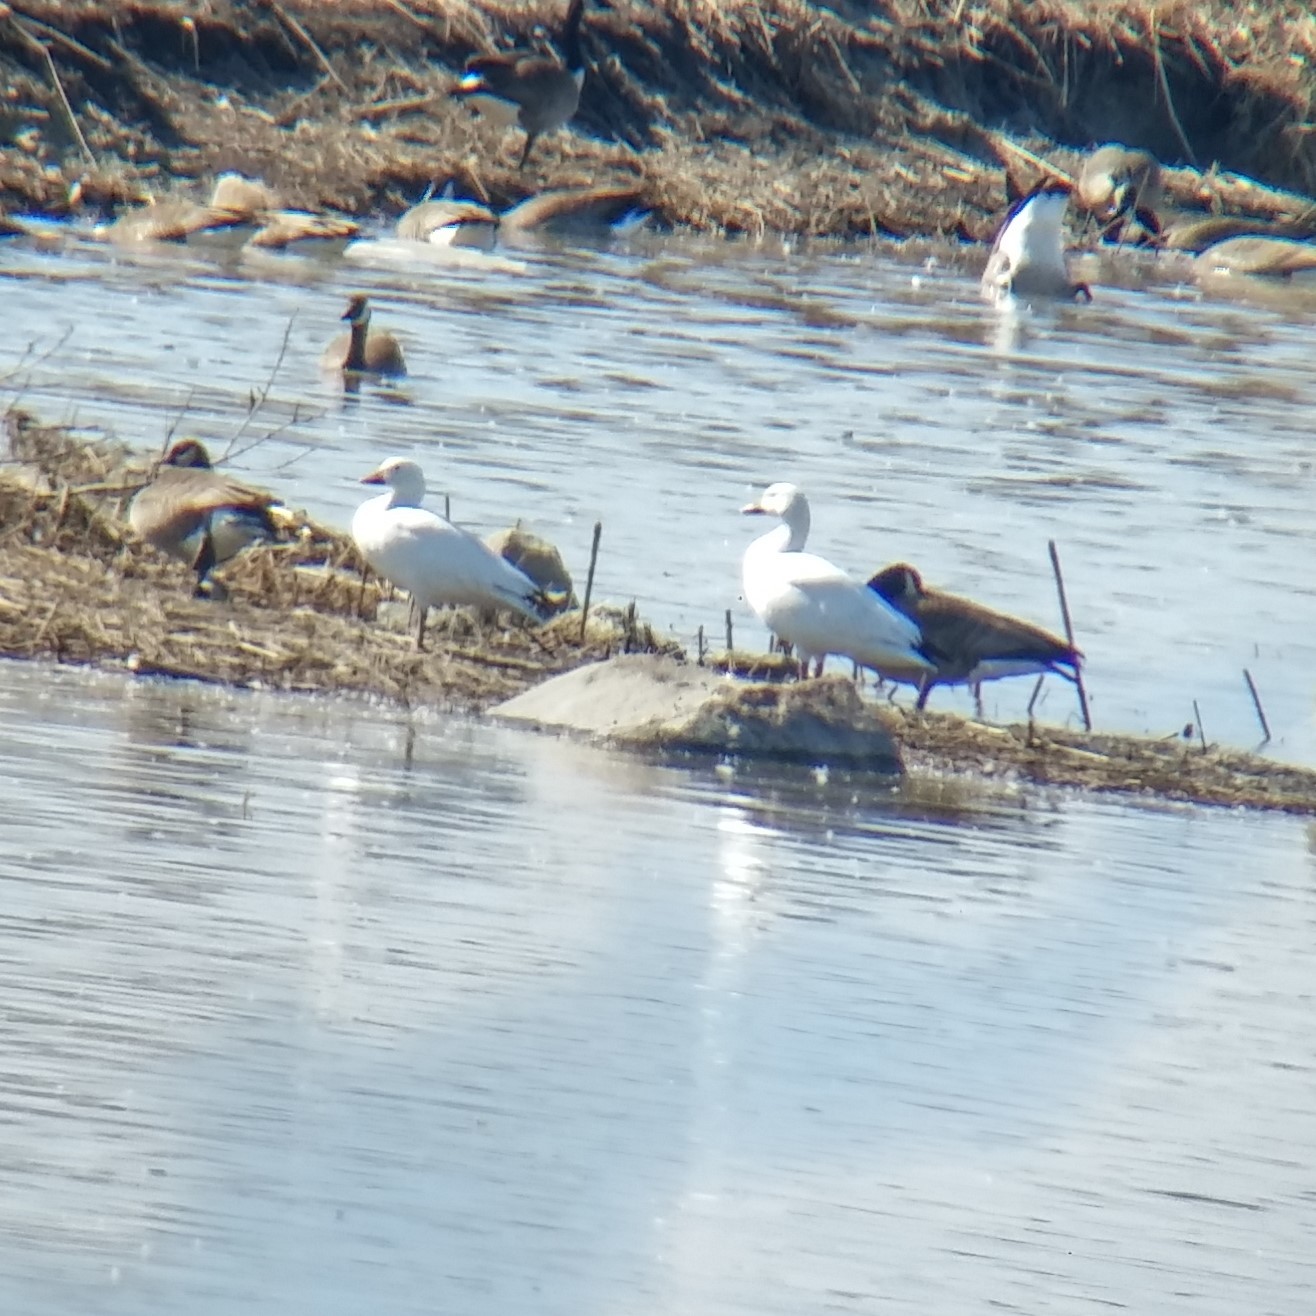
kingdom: Animalia
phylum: Chordata
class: Aves
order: Anseriformes
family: Anatidae
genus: Anser
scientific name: Anser caerulescens
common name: Snow goose
